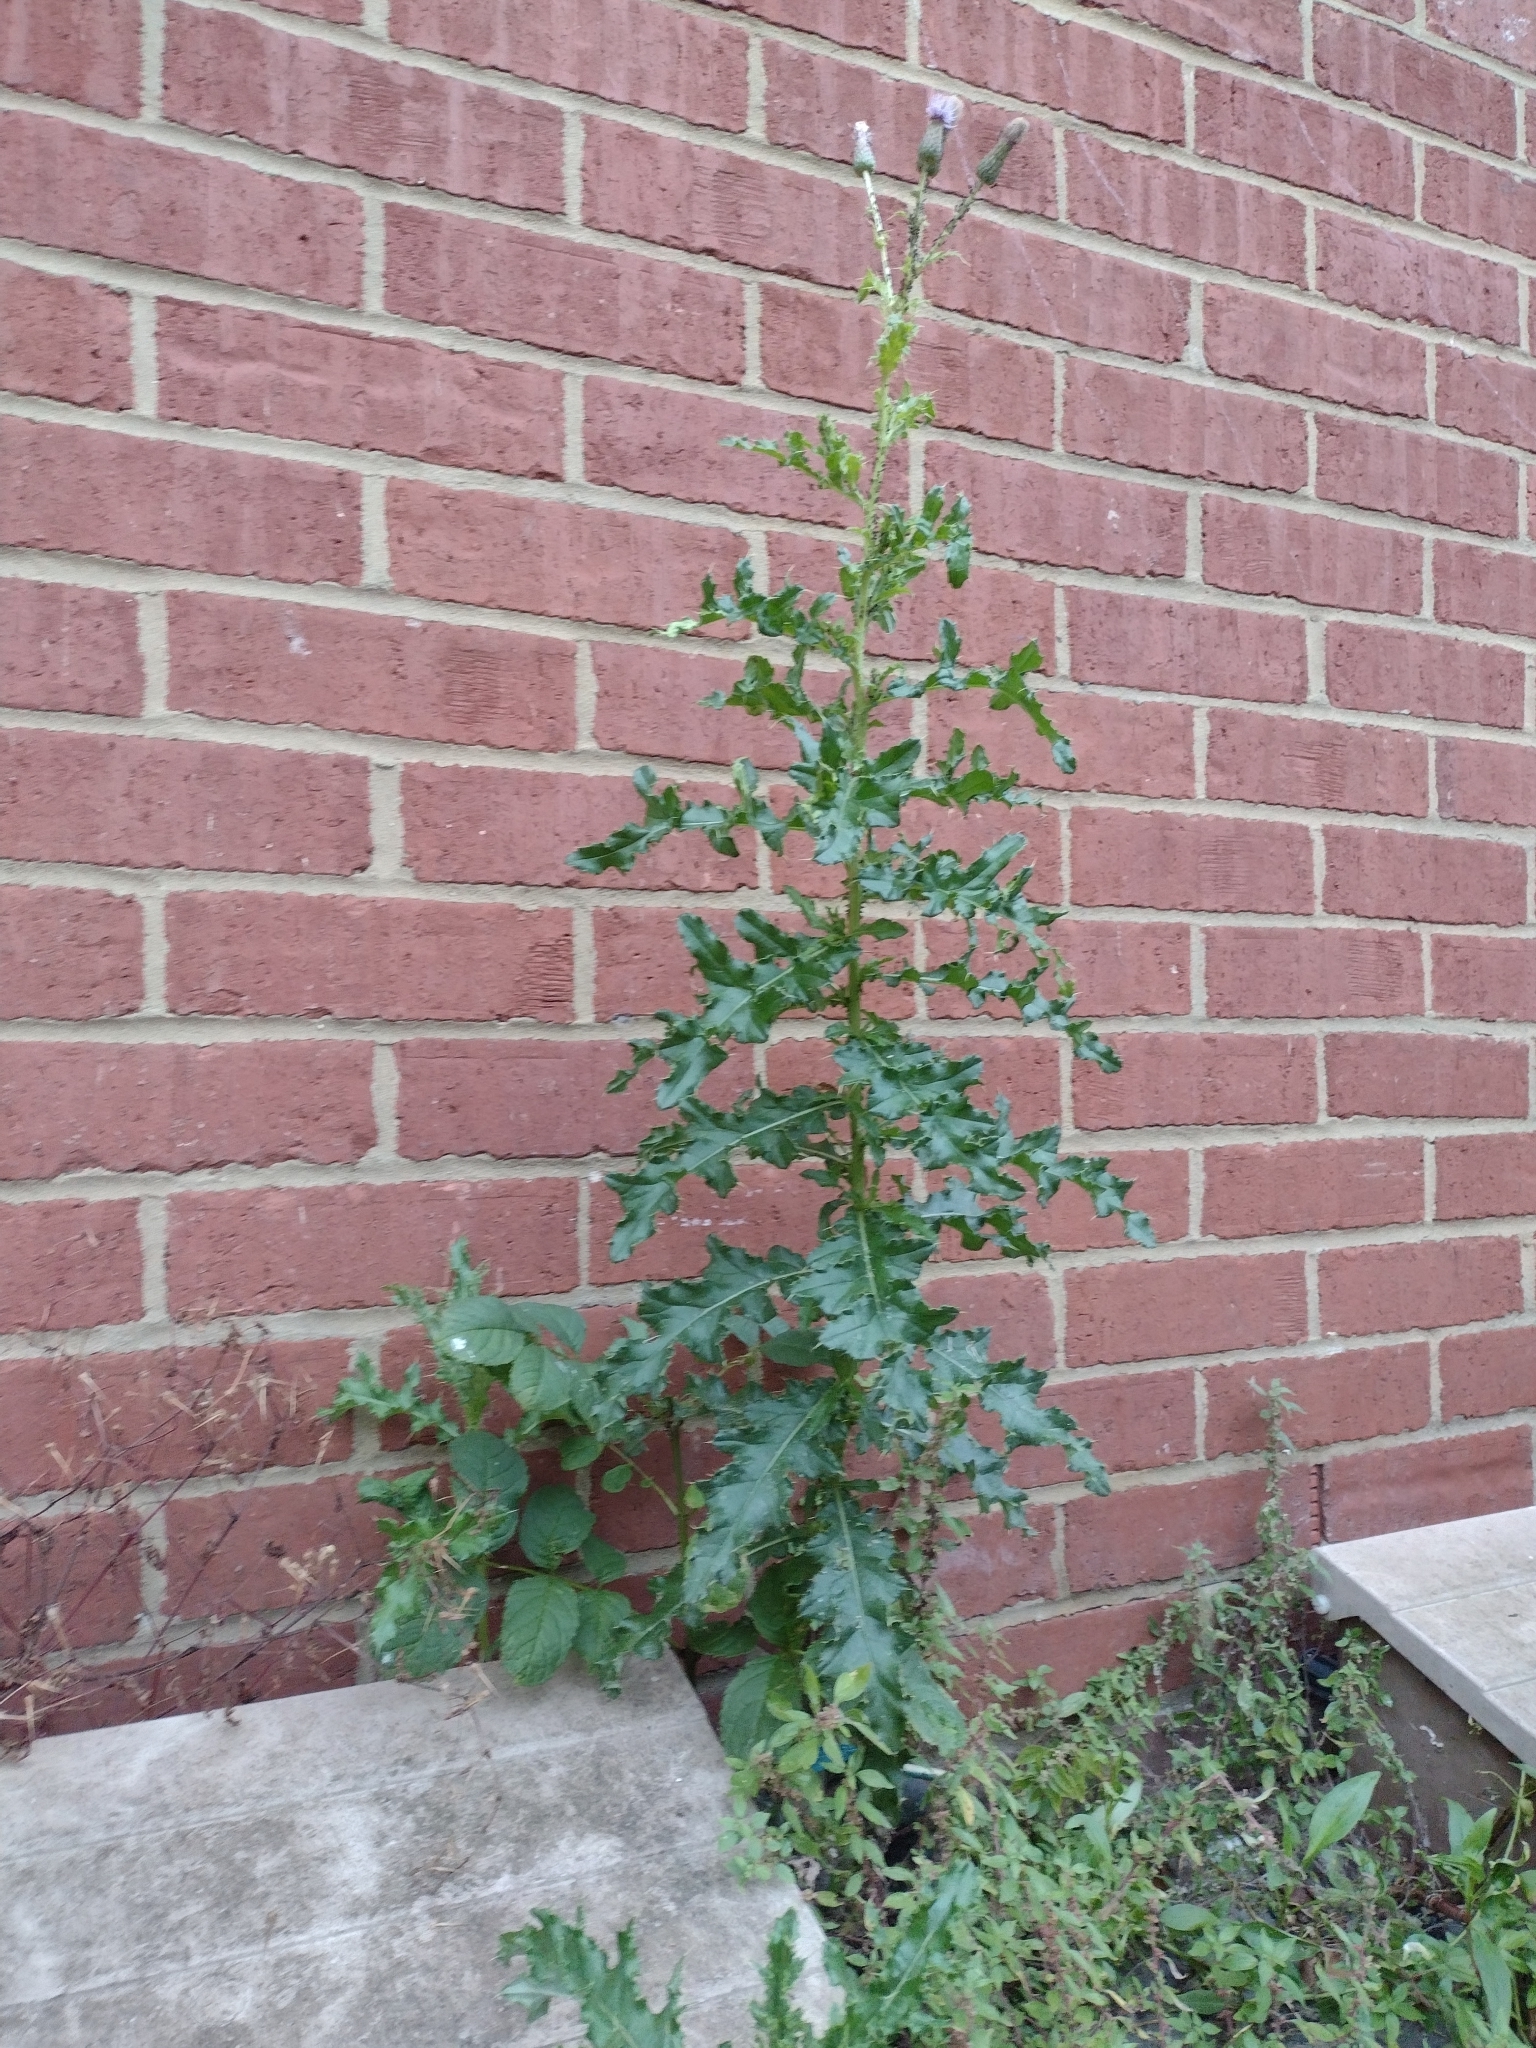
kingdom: Plantae
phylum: Tracheophyta
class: Magnoliopsida
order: Asterales
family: Asteraceae
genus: Cirsium
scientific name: Cirsium arvense
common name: Creeping thistle
